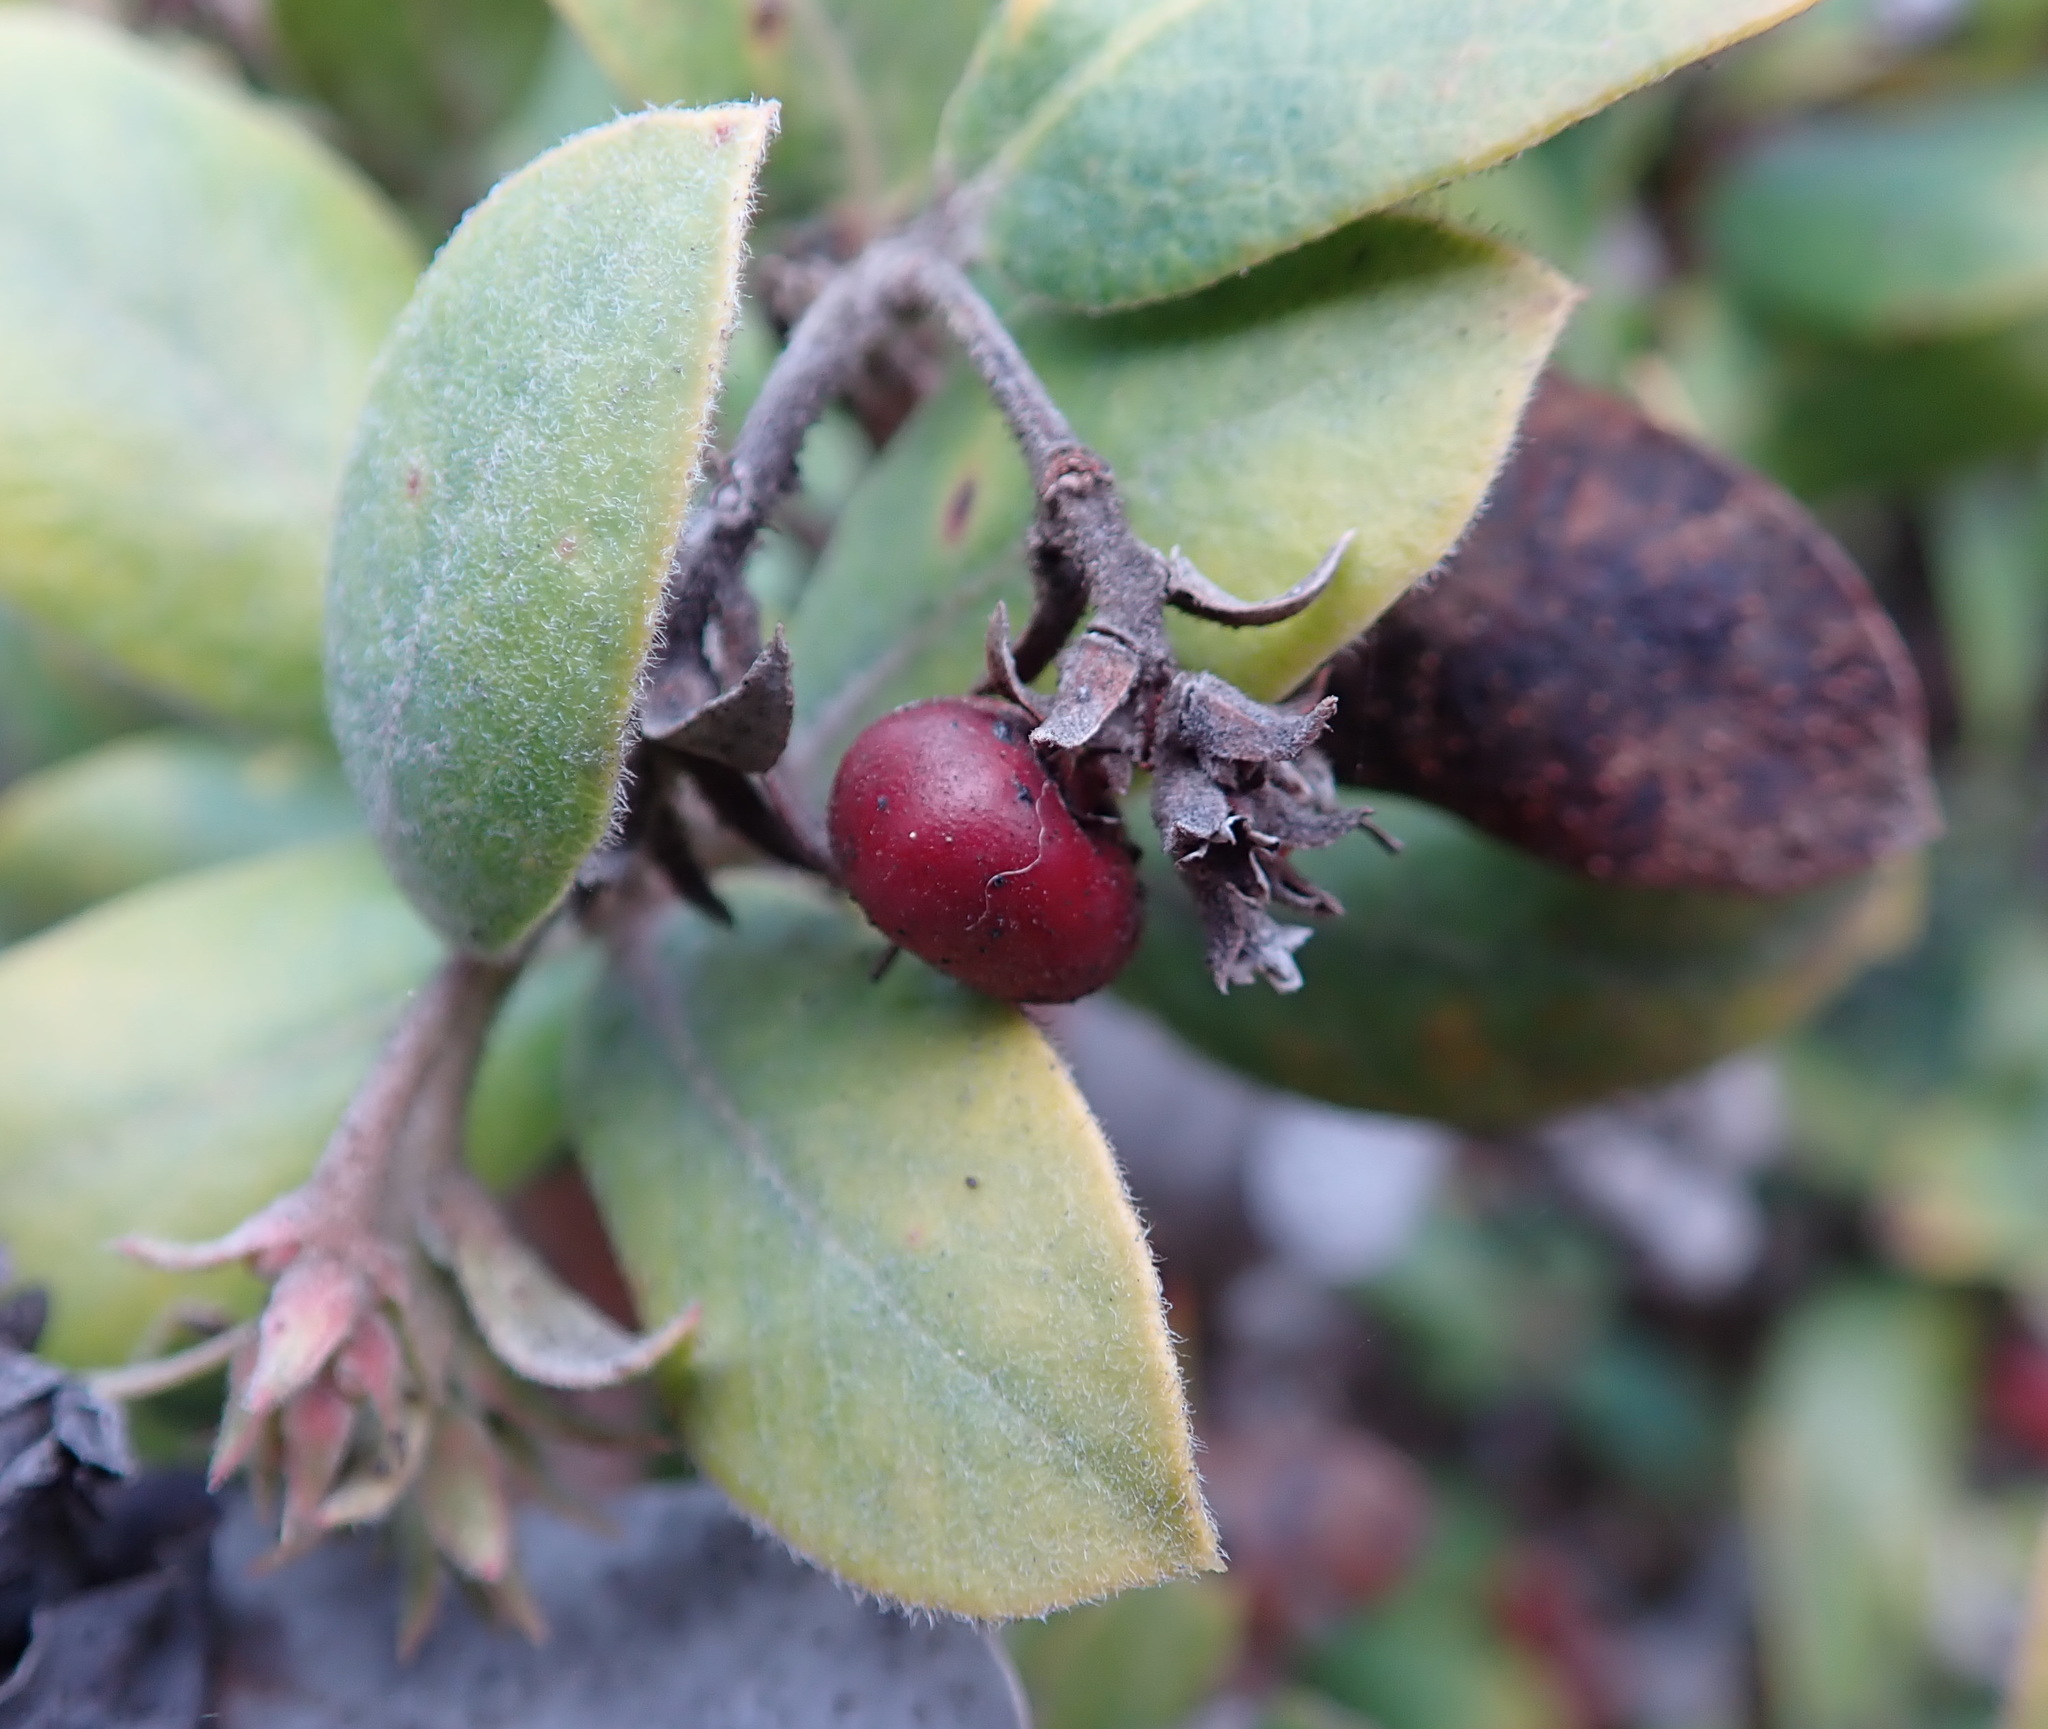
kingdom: Plantae
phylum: Tracheophyta
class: Magnoliopsida
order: Ericales
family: Ericaceae
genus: Arctostaphylos
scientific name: Arctostaphylos tomentosa
